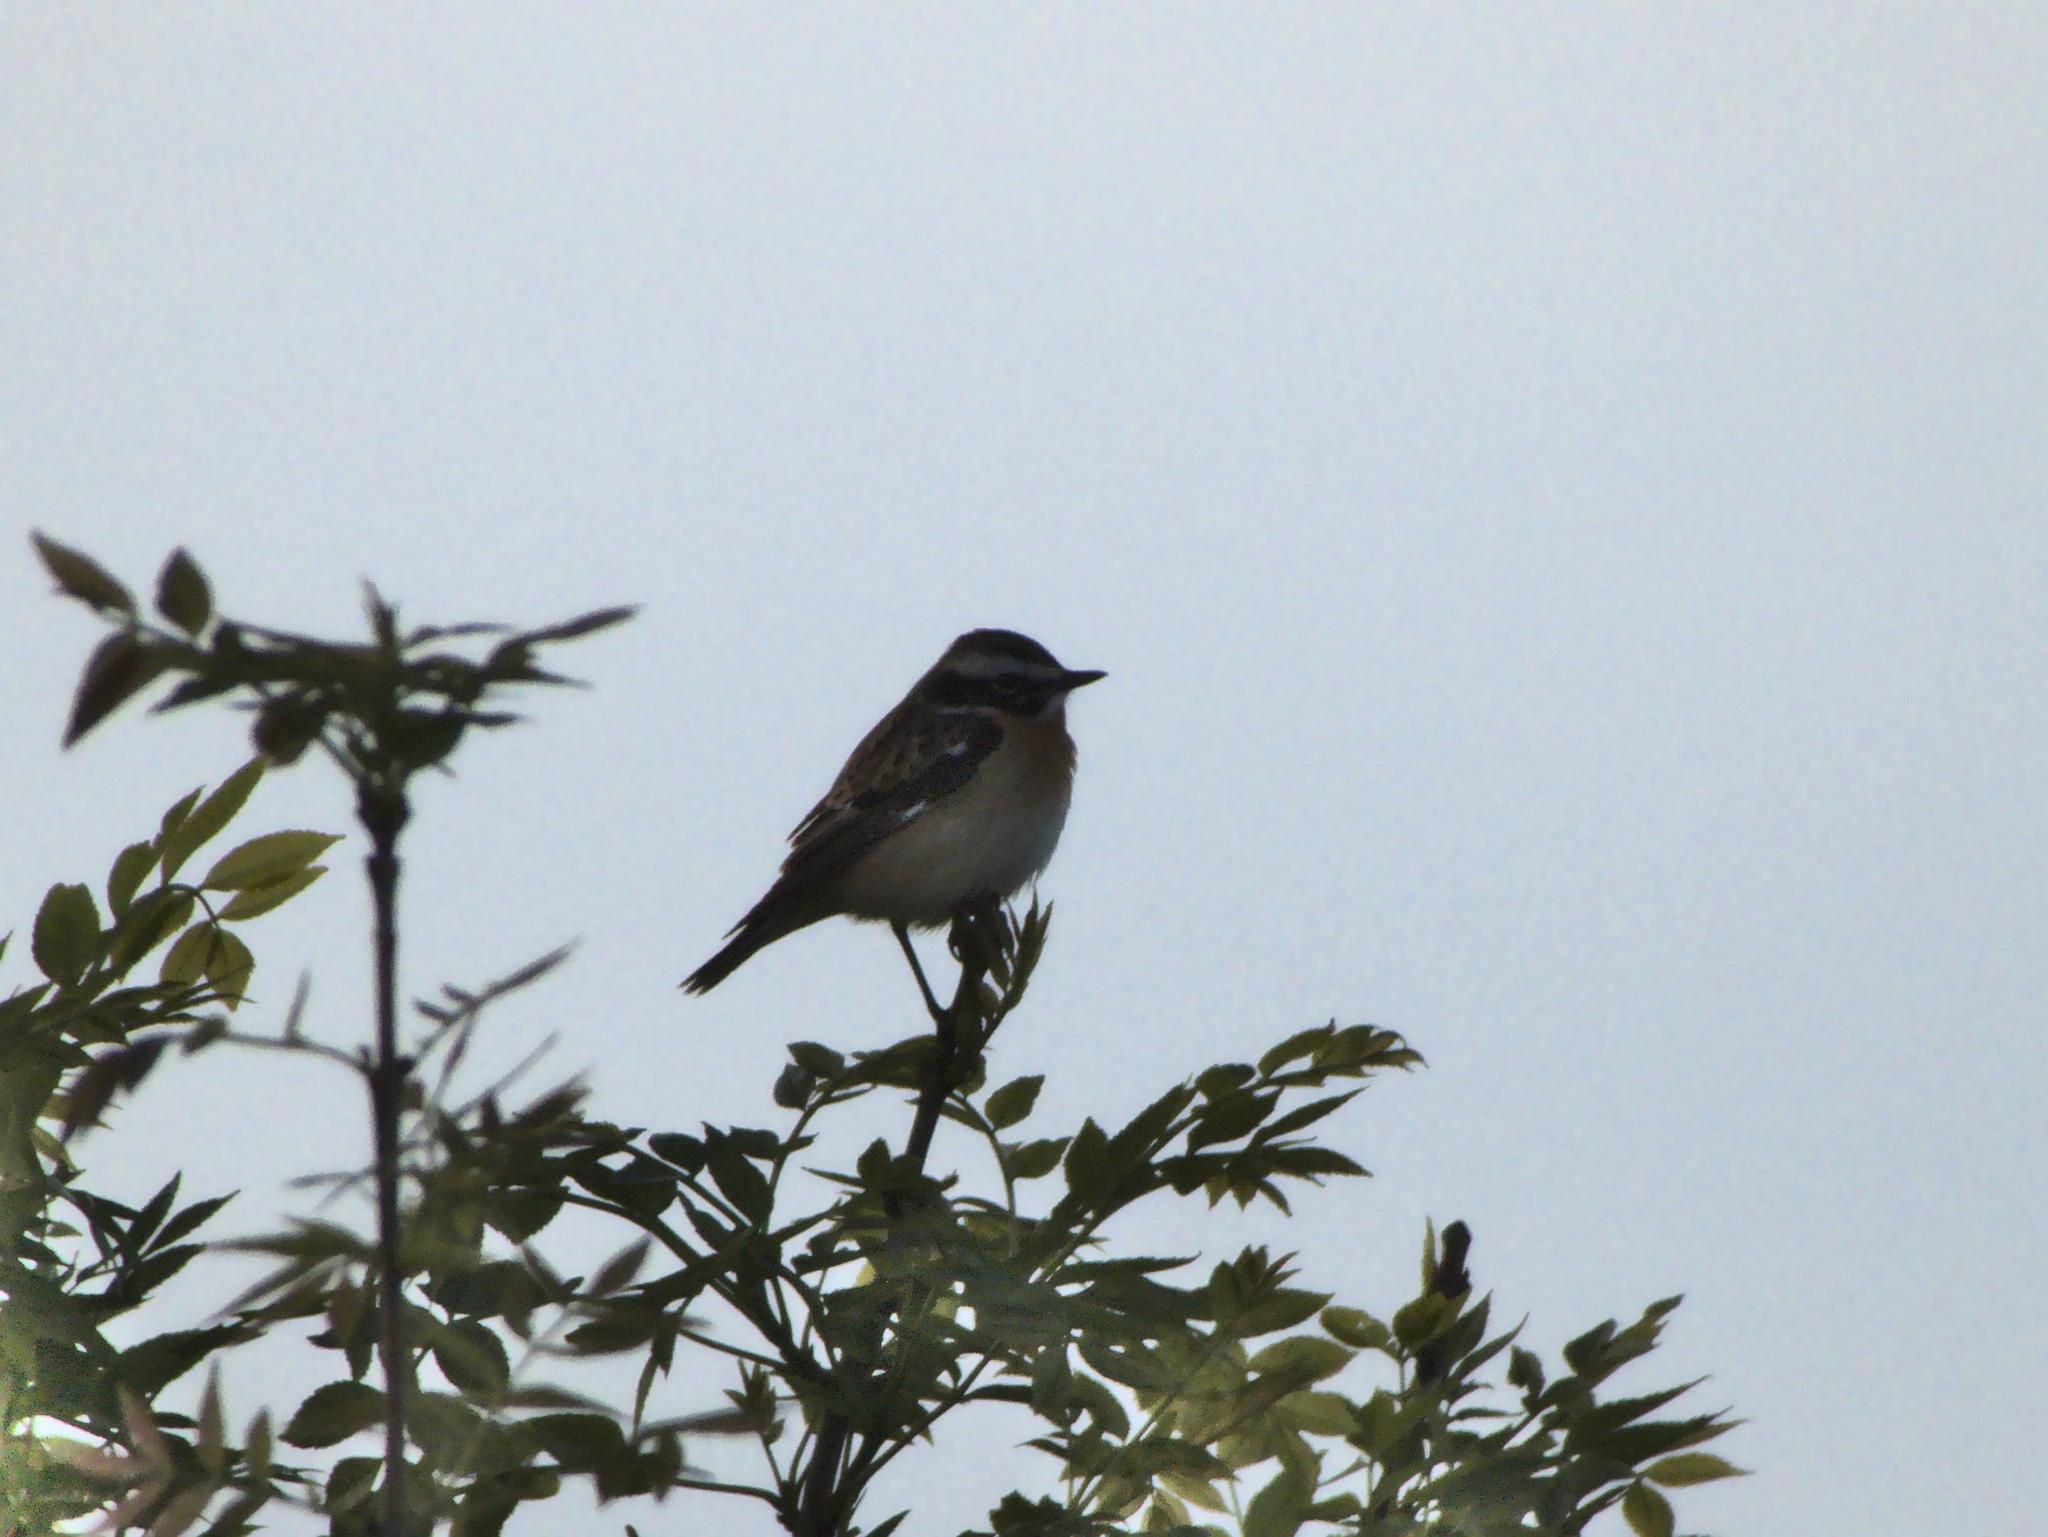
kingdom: Animalia
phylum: Chordata
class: Aves
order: Passeriformes
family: Muscicapidae
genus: Saxicola
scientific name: Saxicola rubetra
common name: Whinchat
